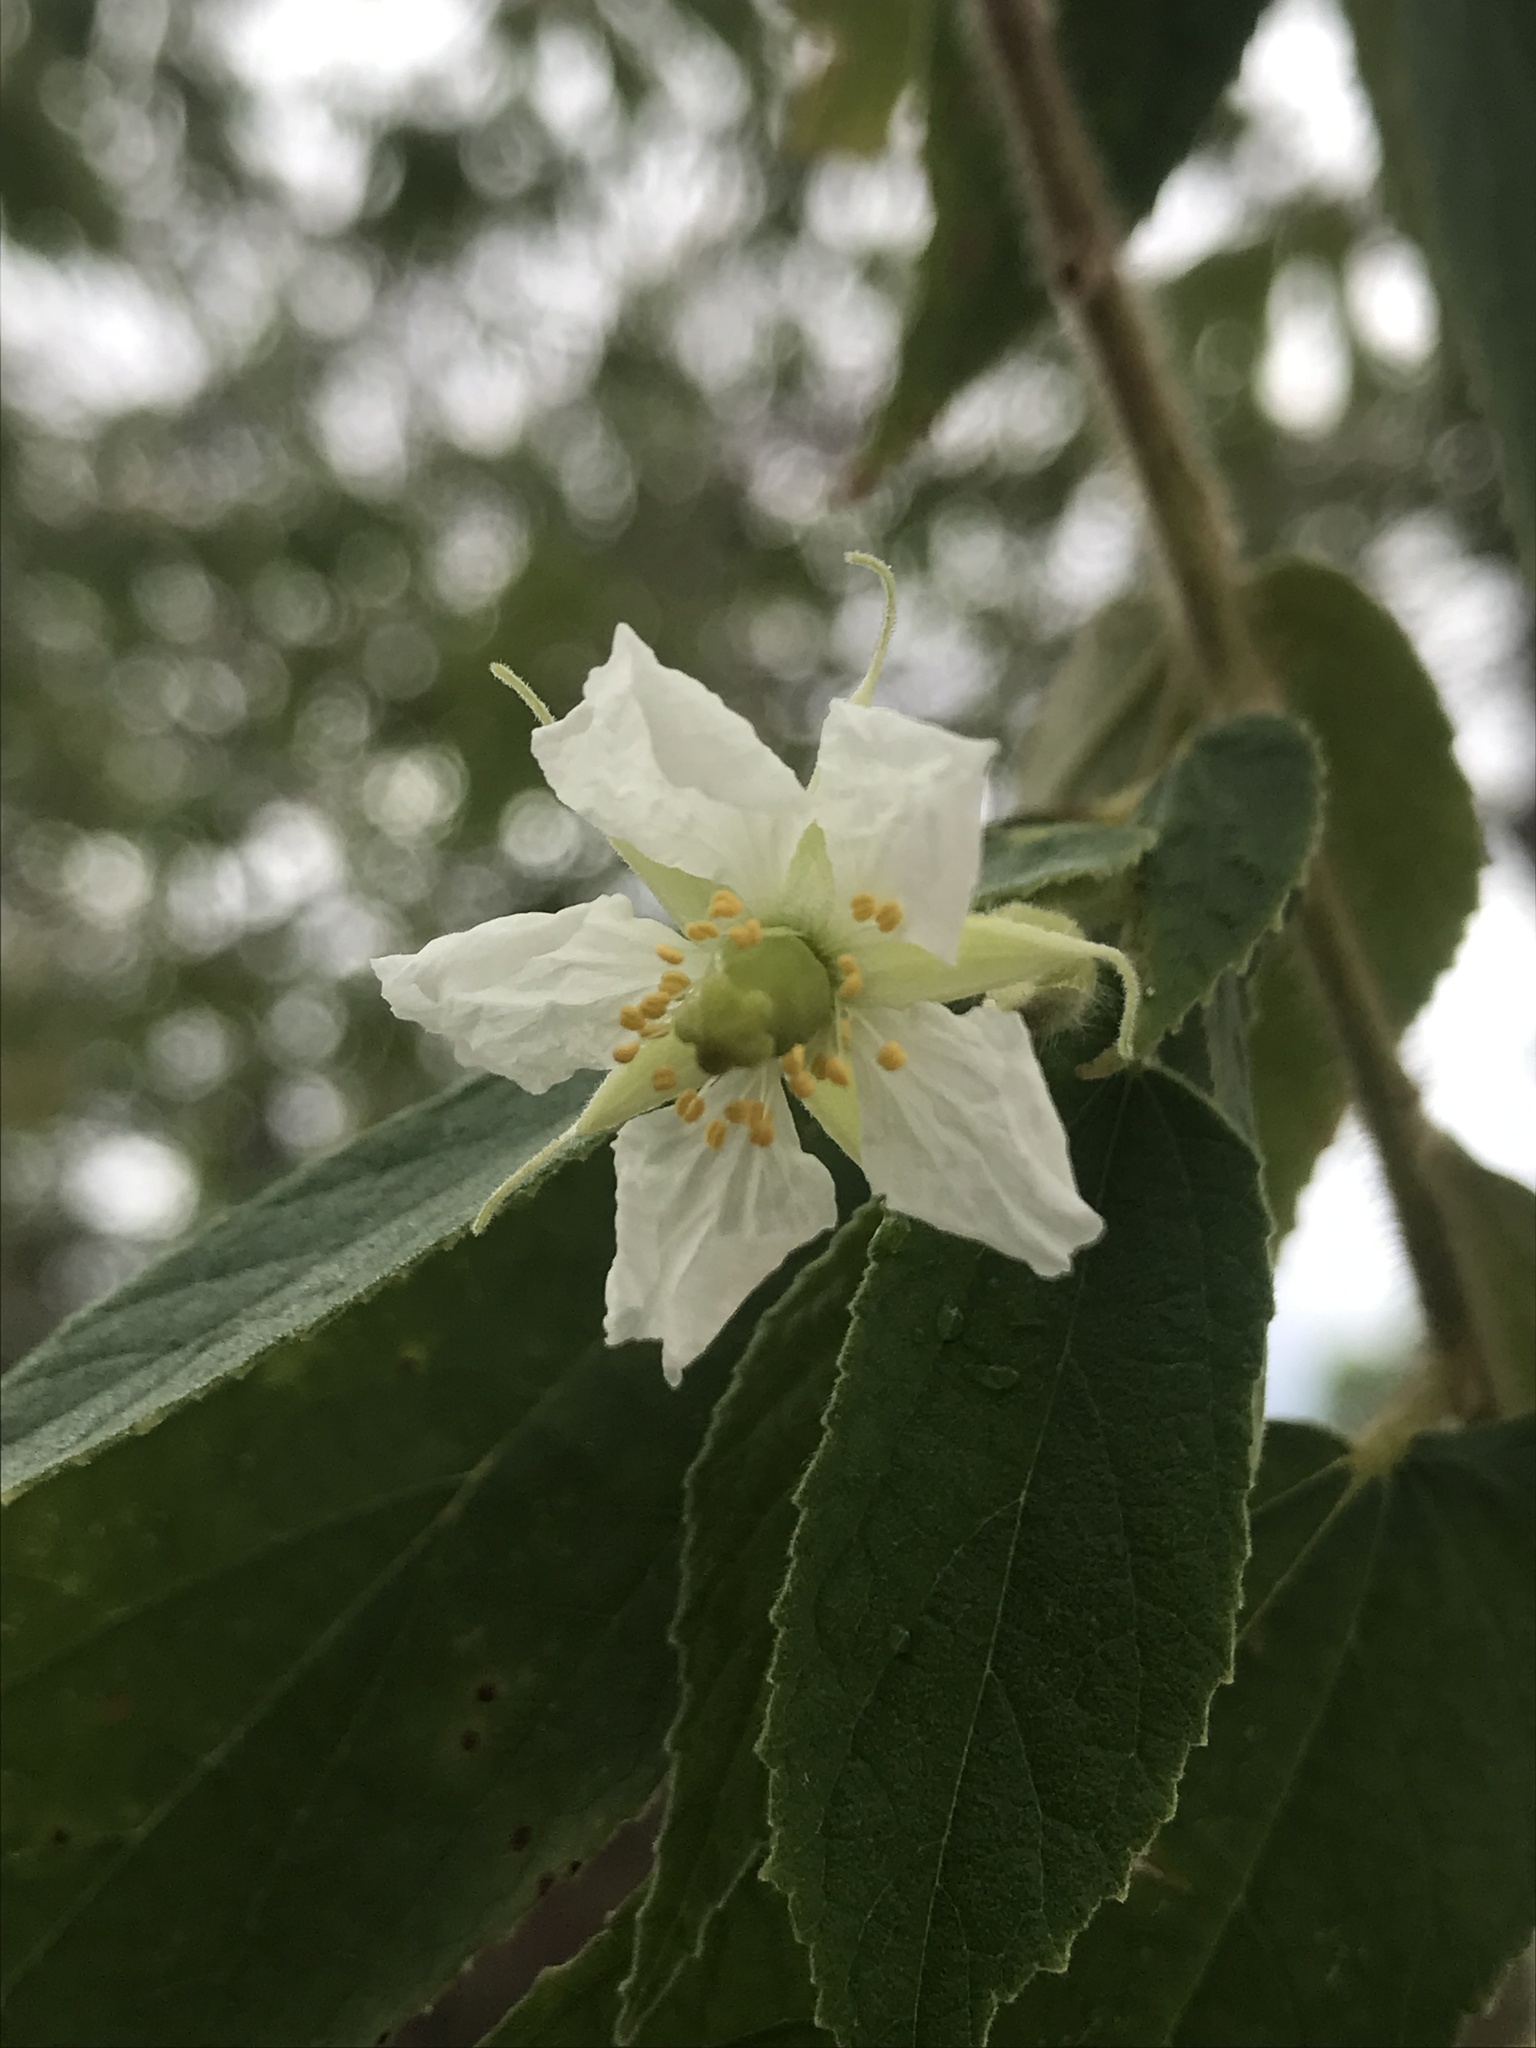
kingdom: Plantae
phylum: Tracheophyta
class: Magnoliopsida
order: Malvales
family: Muntingiaceae
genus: Muntingia
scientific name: Muntingia calabura
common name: Strawberrytree
